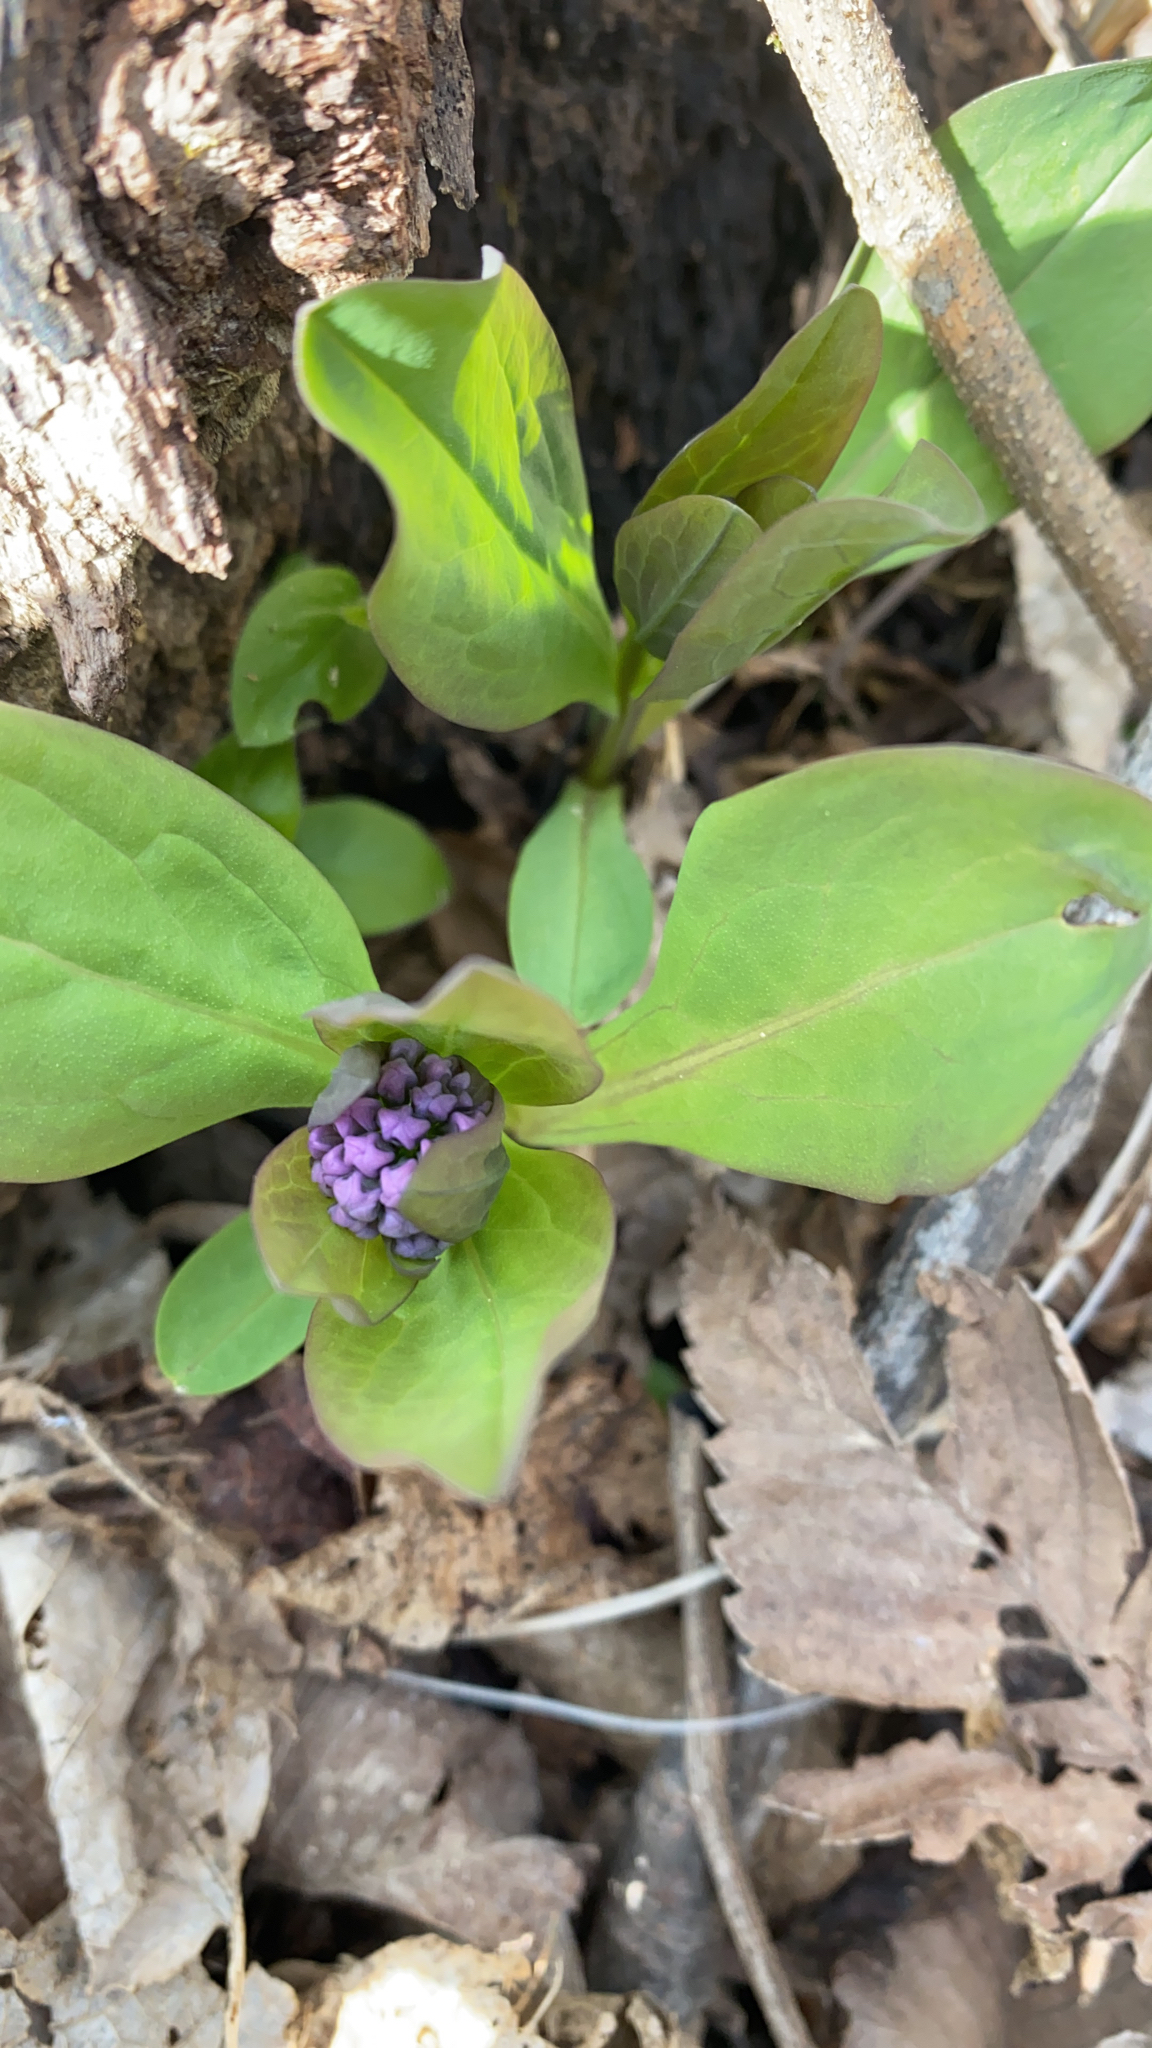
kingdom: Plantae
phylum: Tracheophyta
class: Magnoliopsida
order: Boraginales
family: Boraginaceae
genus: Mertensia
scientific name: Mertensia virginica
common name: Virginia bluebells
